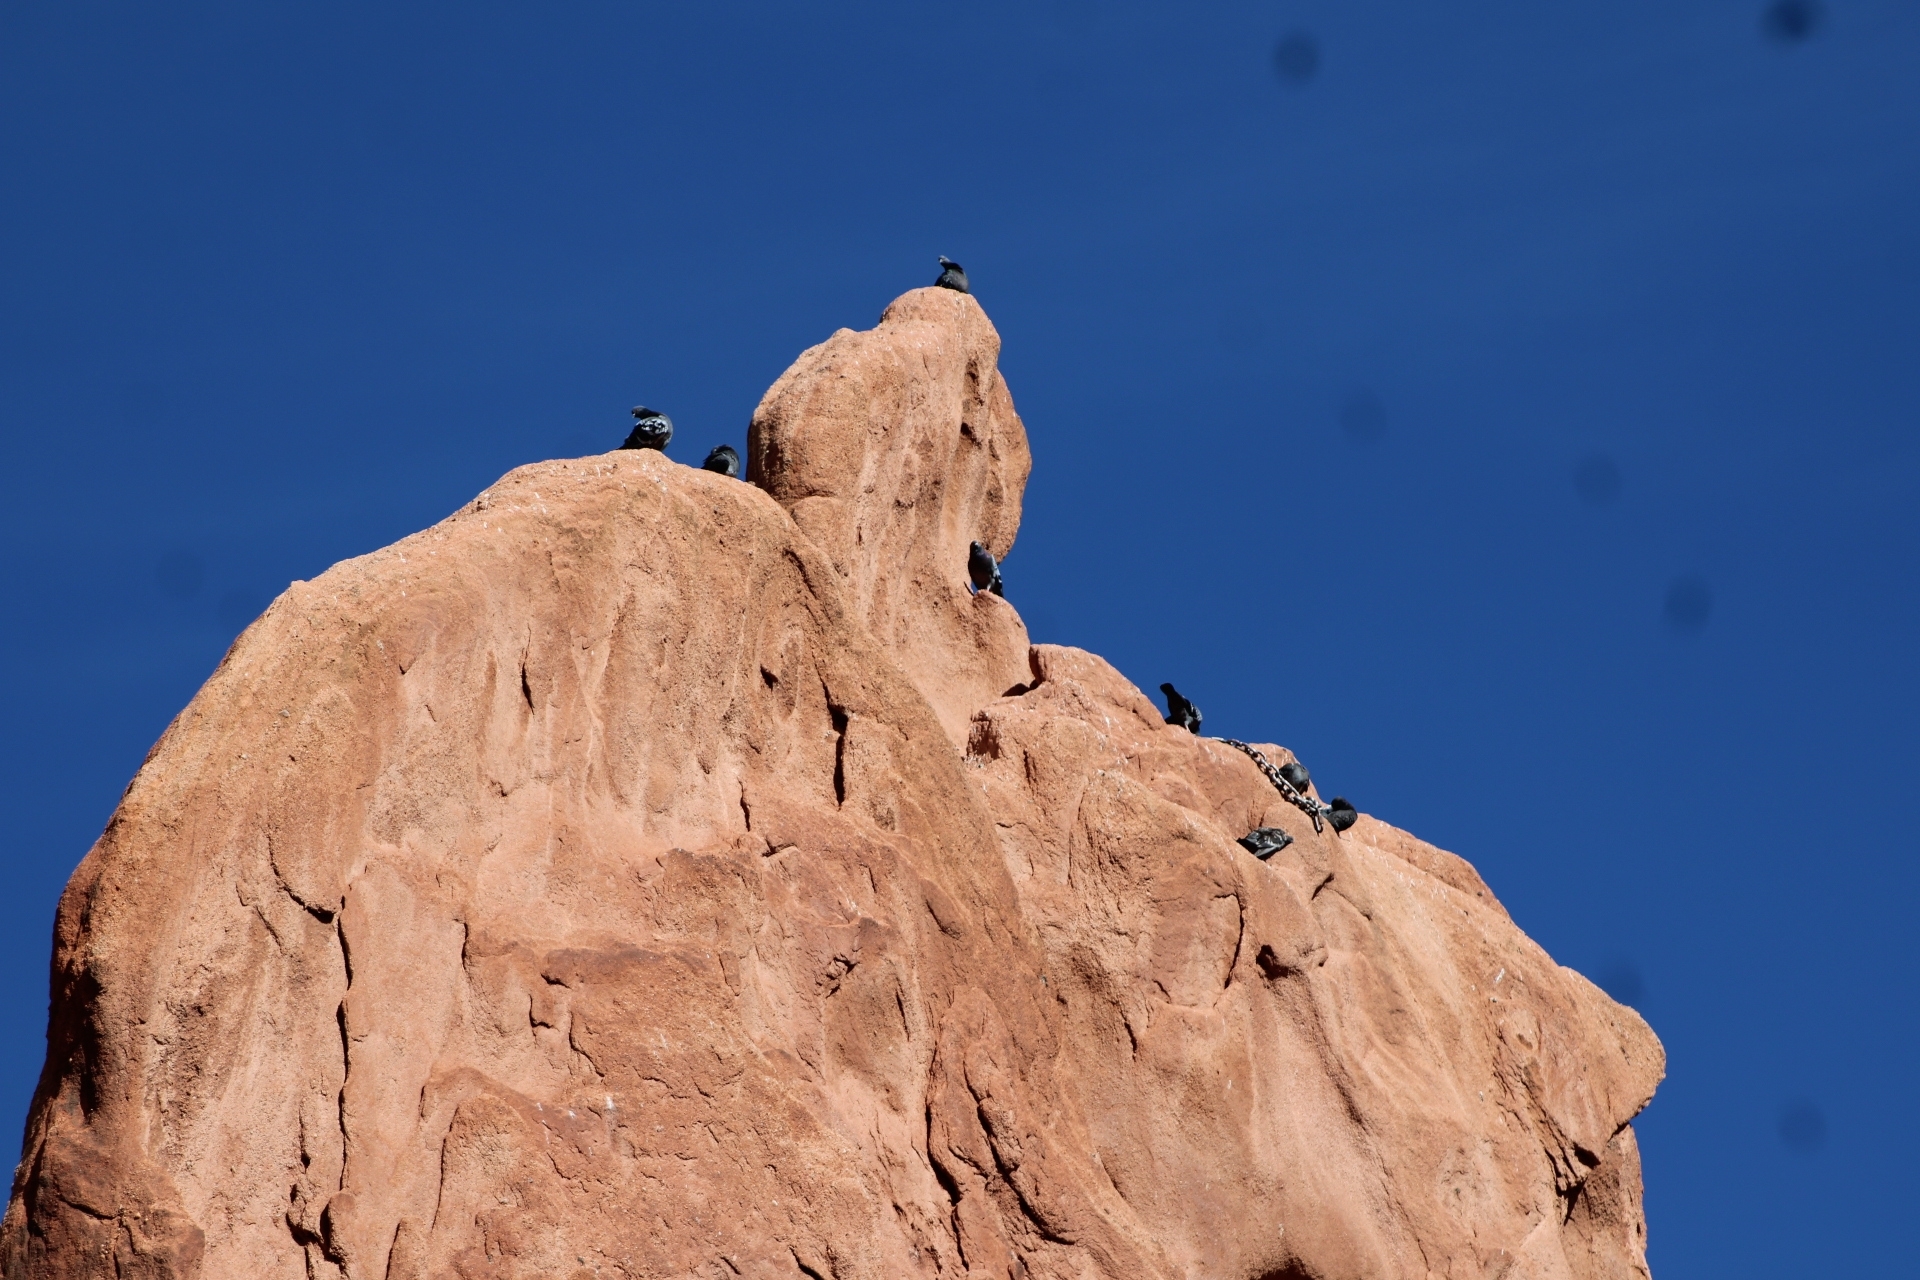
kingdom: Animalia
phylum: Chordata
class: Aves
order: Columbiformes
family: Columbidae
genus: Columba
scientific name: Columba livia
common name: Rock pigeon
